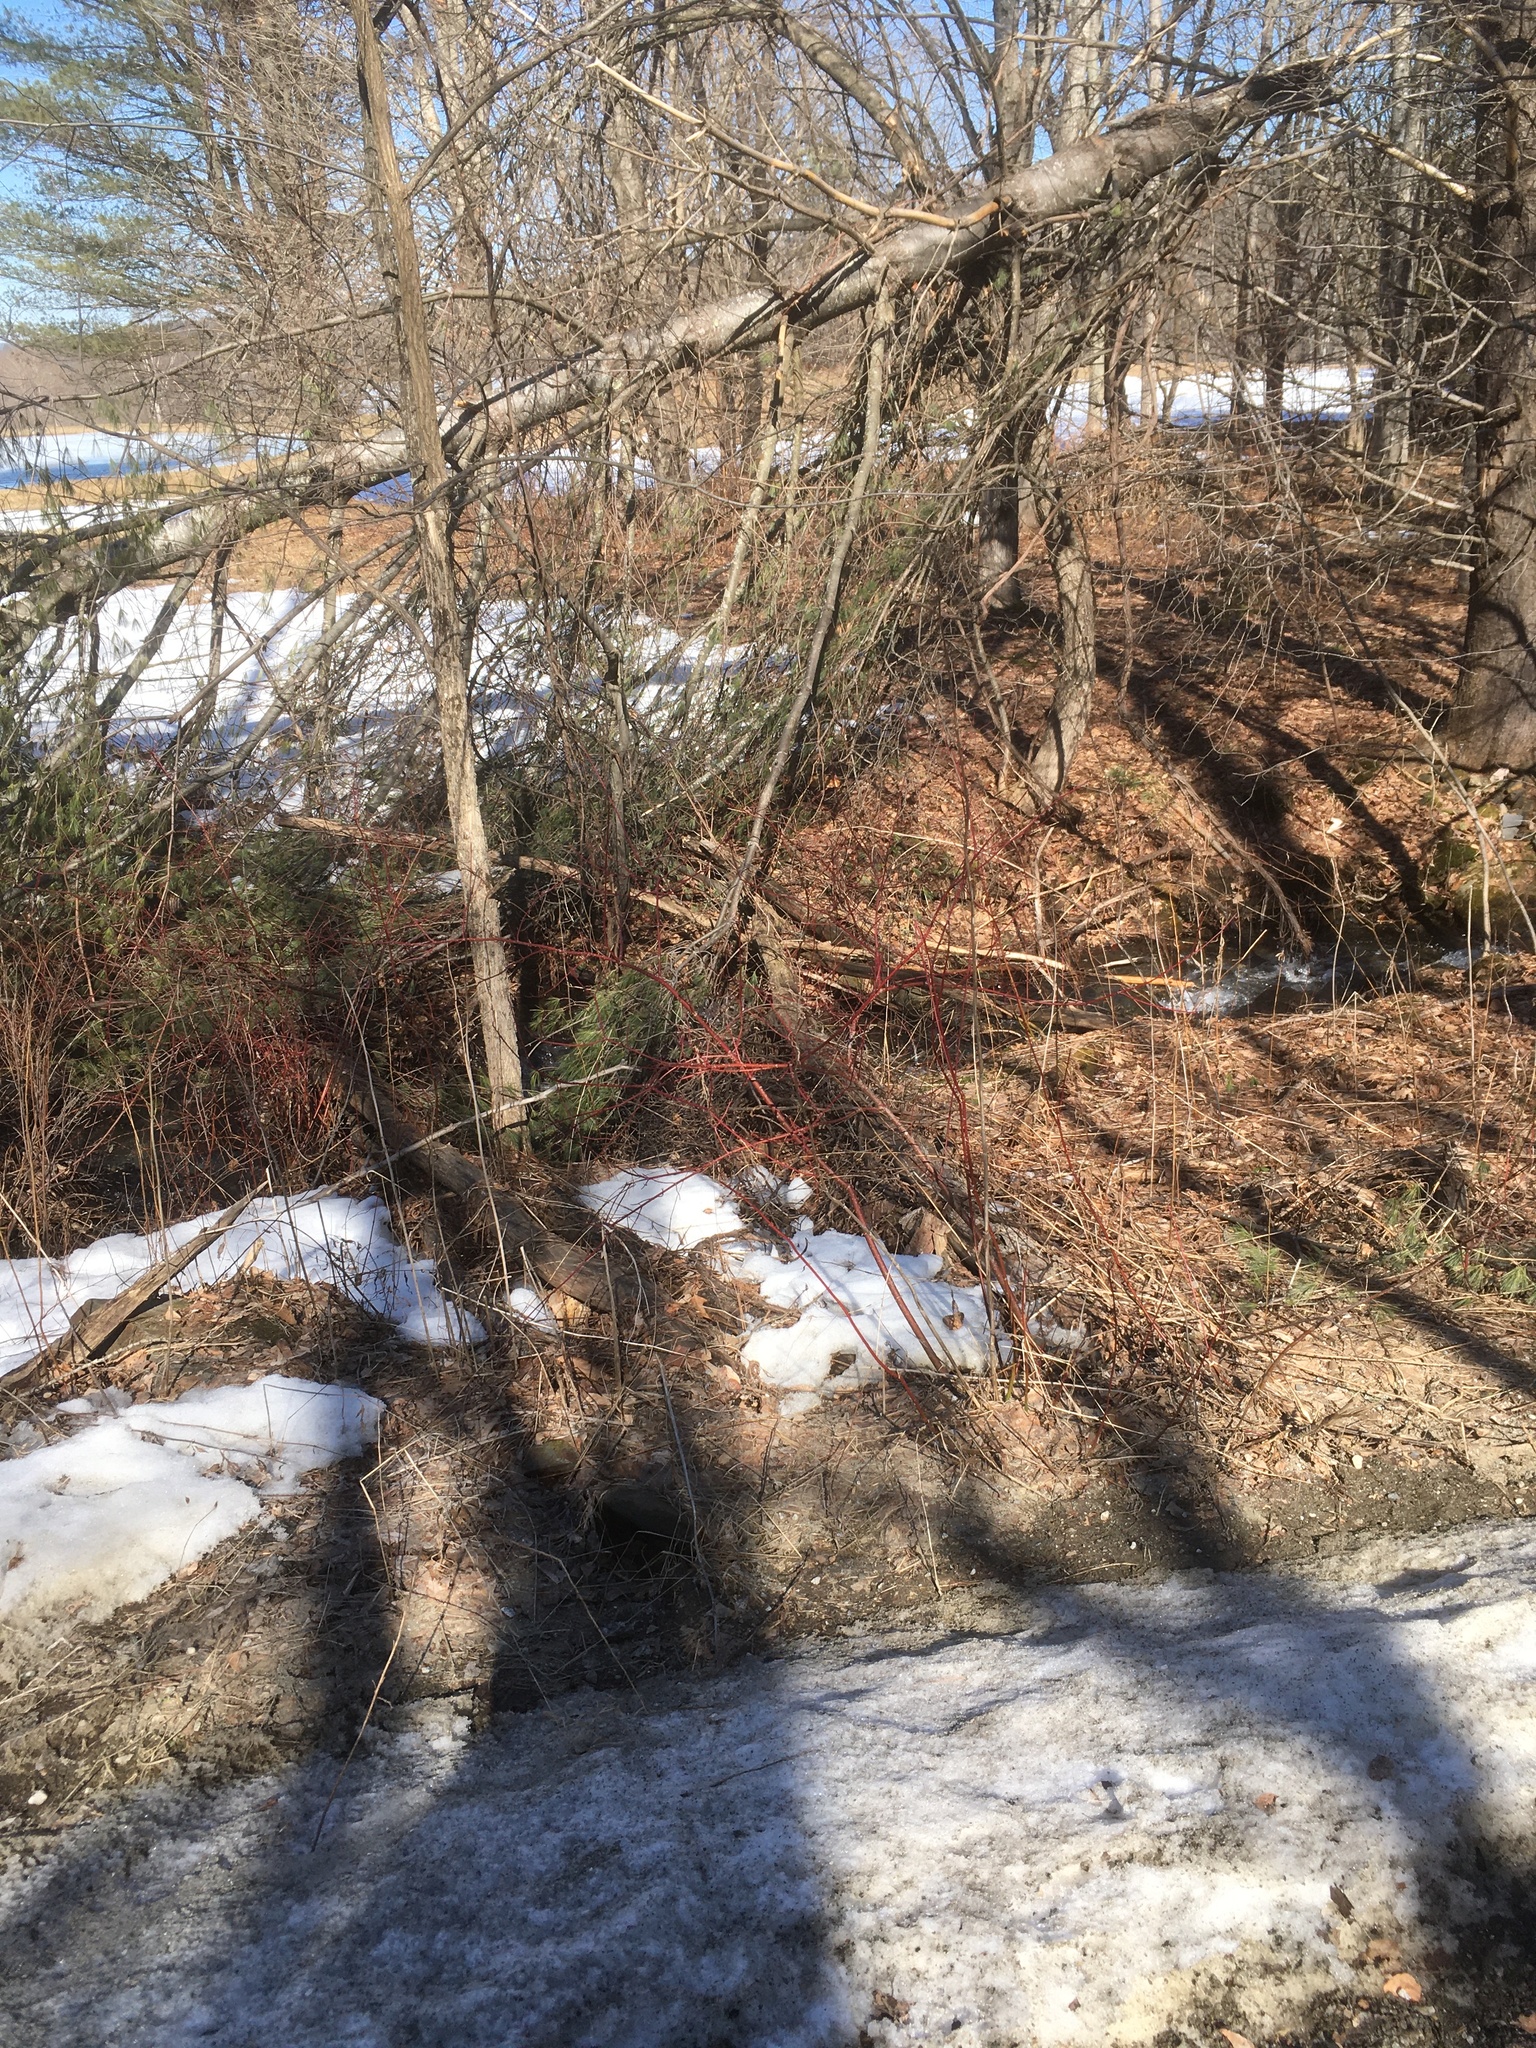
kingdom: Plantae
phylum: Tracheophyta
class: Magnoliopsida
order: Cornales
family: Cornaceae
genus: Cornus
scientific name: Cornus sericea
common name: Red-osier dogwood
